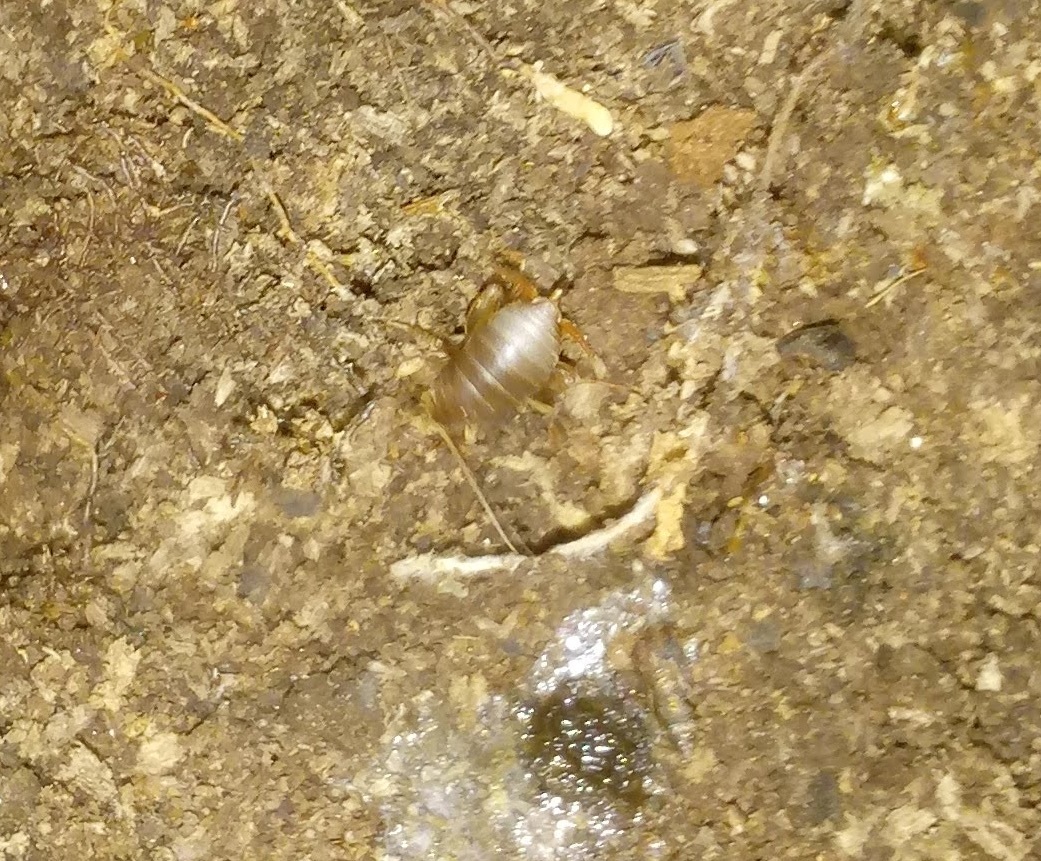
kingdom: Animalia
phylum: Arthropoda
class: Insecta
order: Orthoptera
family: Myrmecophilidae
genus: Myrmecophilus
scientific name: Myrmecophilus pergandei
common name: Eastern ant cricket
